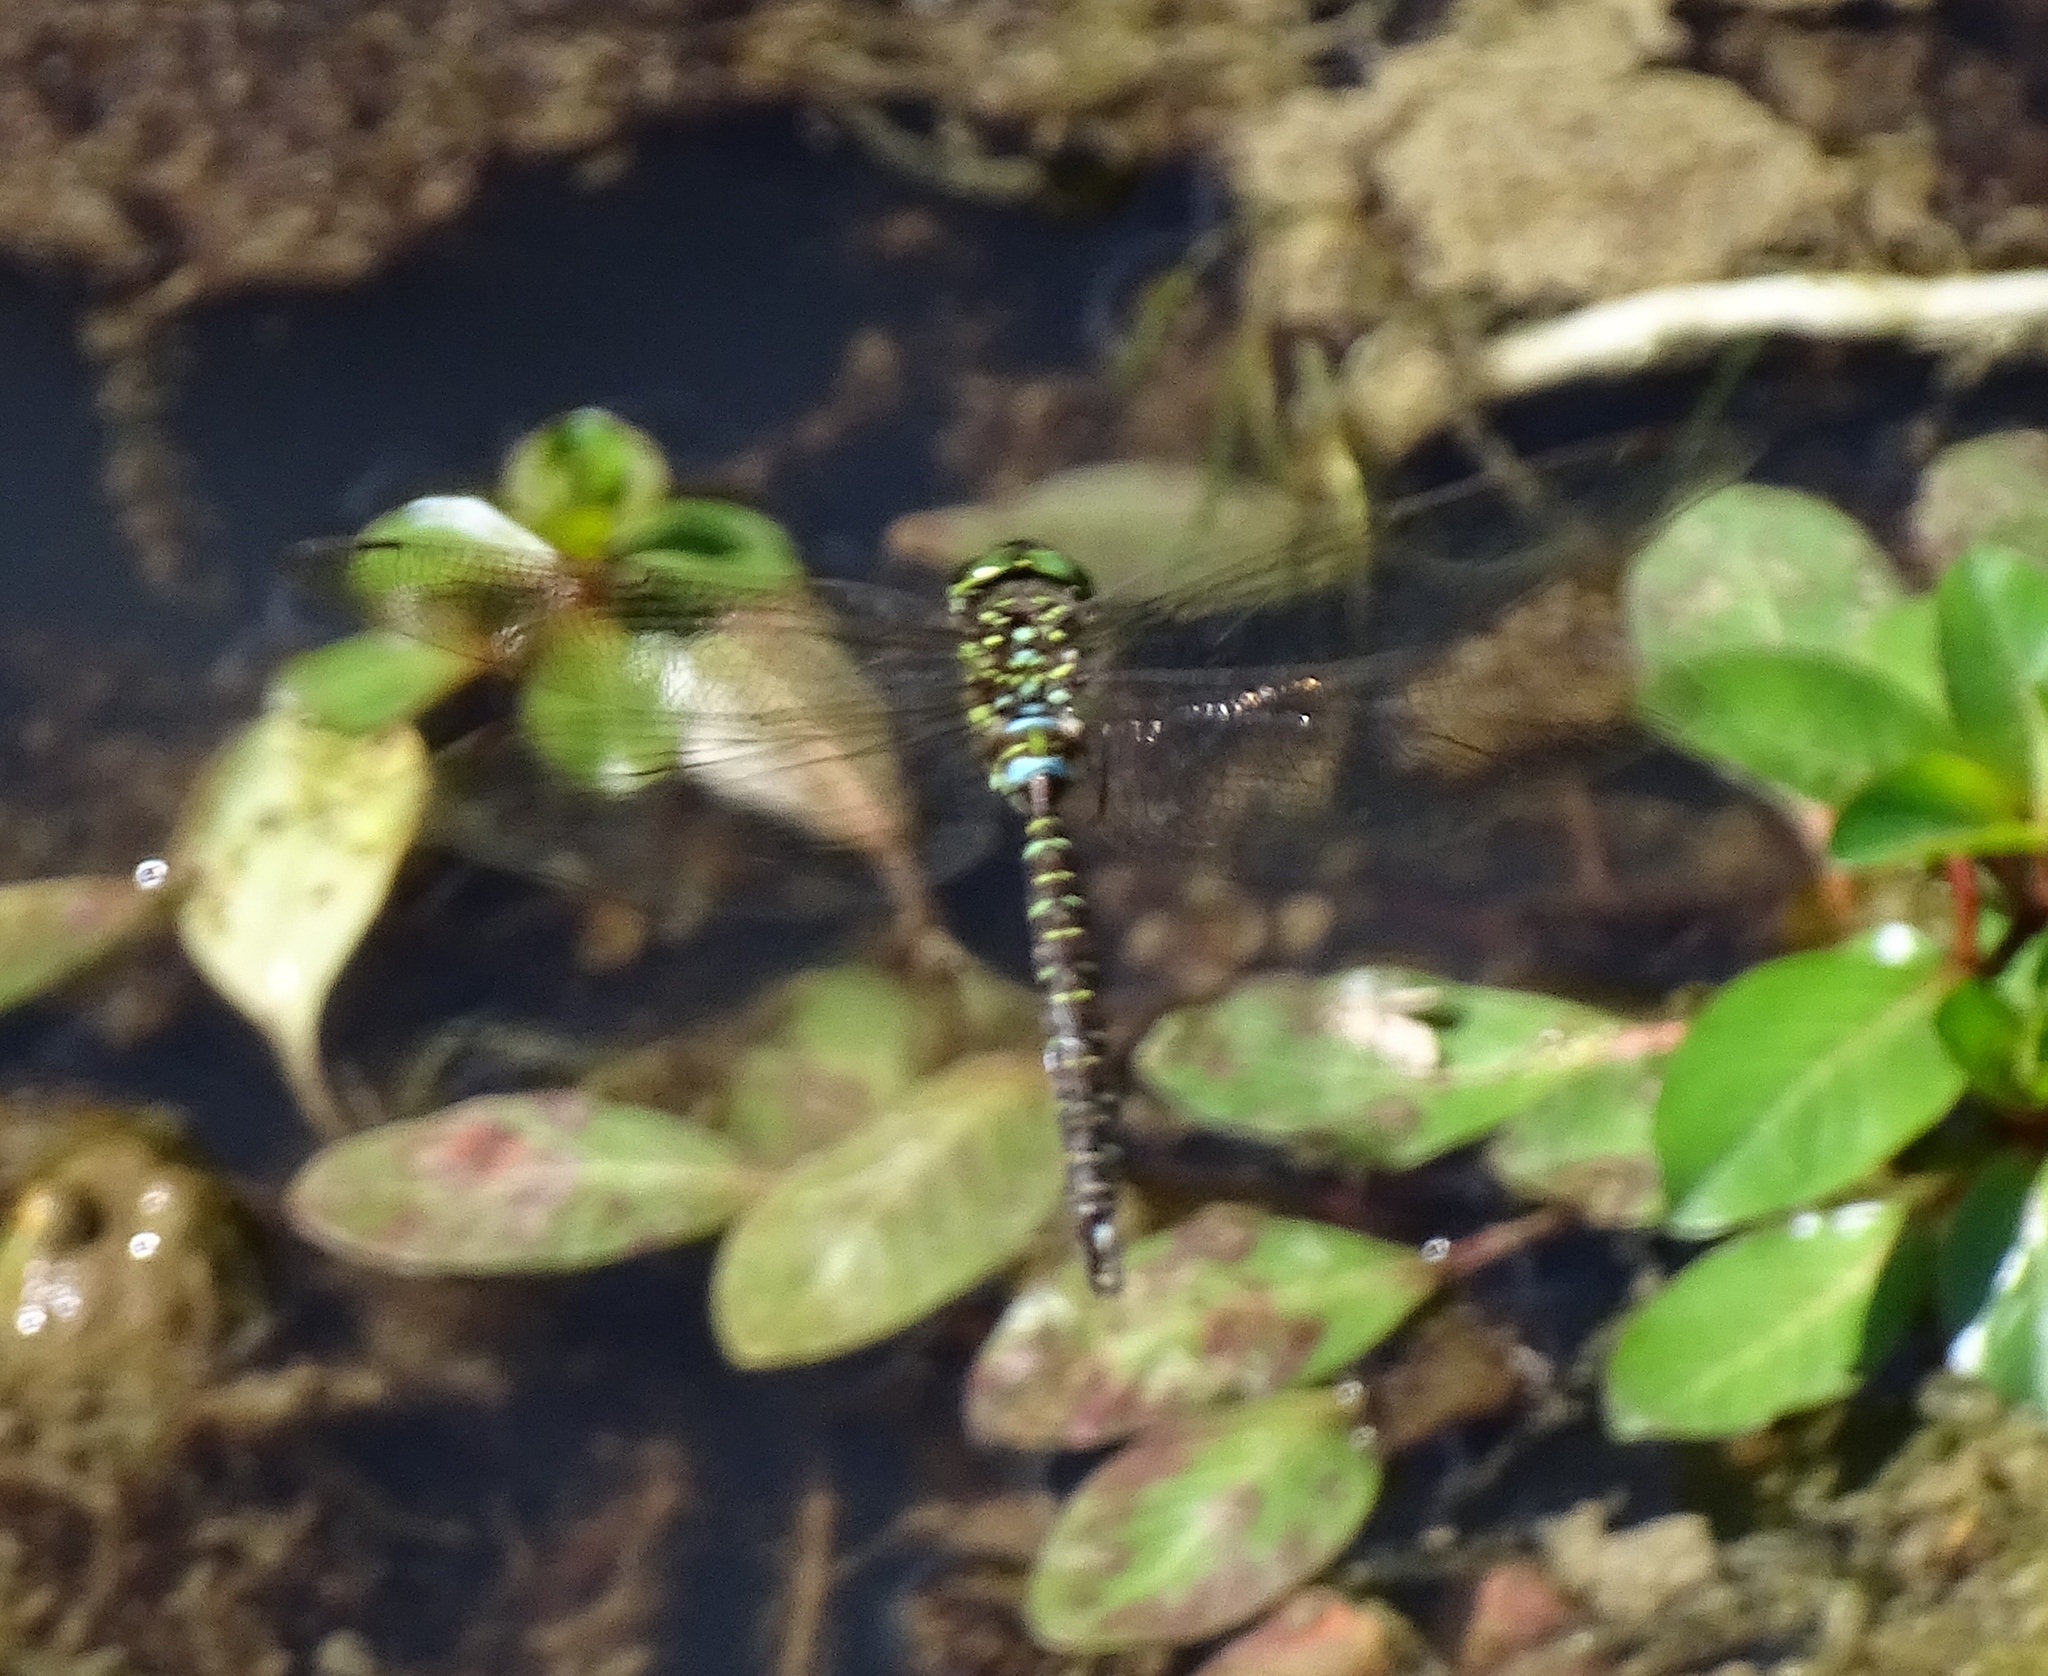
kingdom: Animalia
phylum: Arthropoda
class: Insecta
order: Odonata
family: Aeshnidae
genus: Aeshna
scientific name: Aeshna umbrosa
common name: Shadow darner
